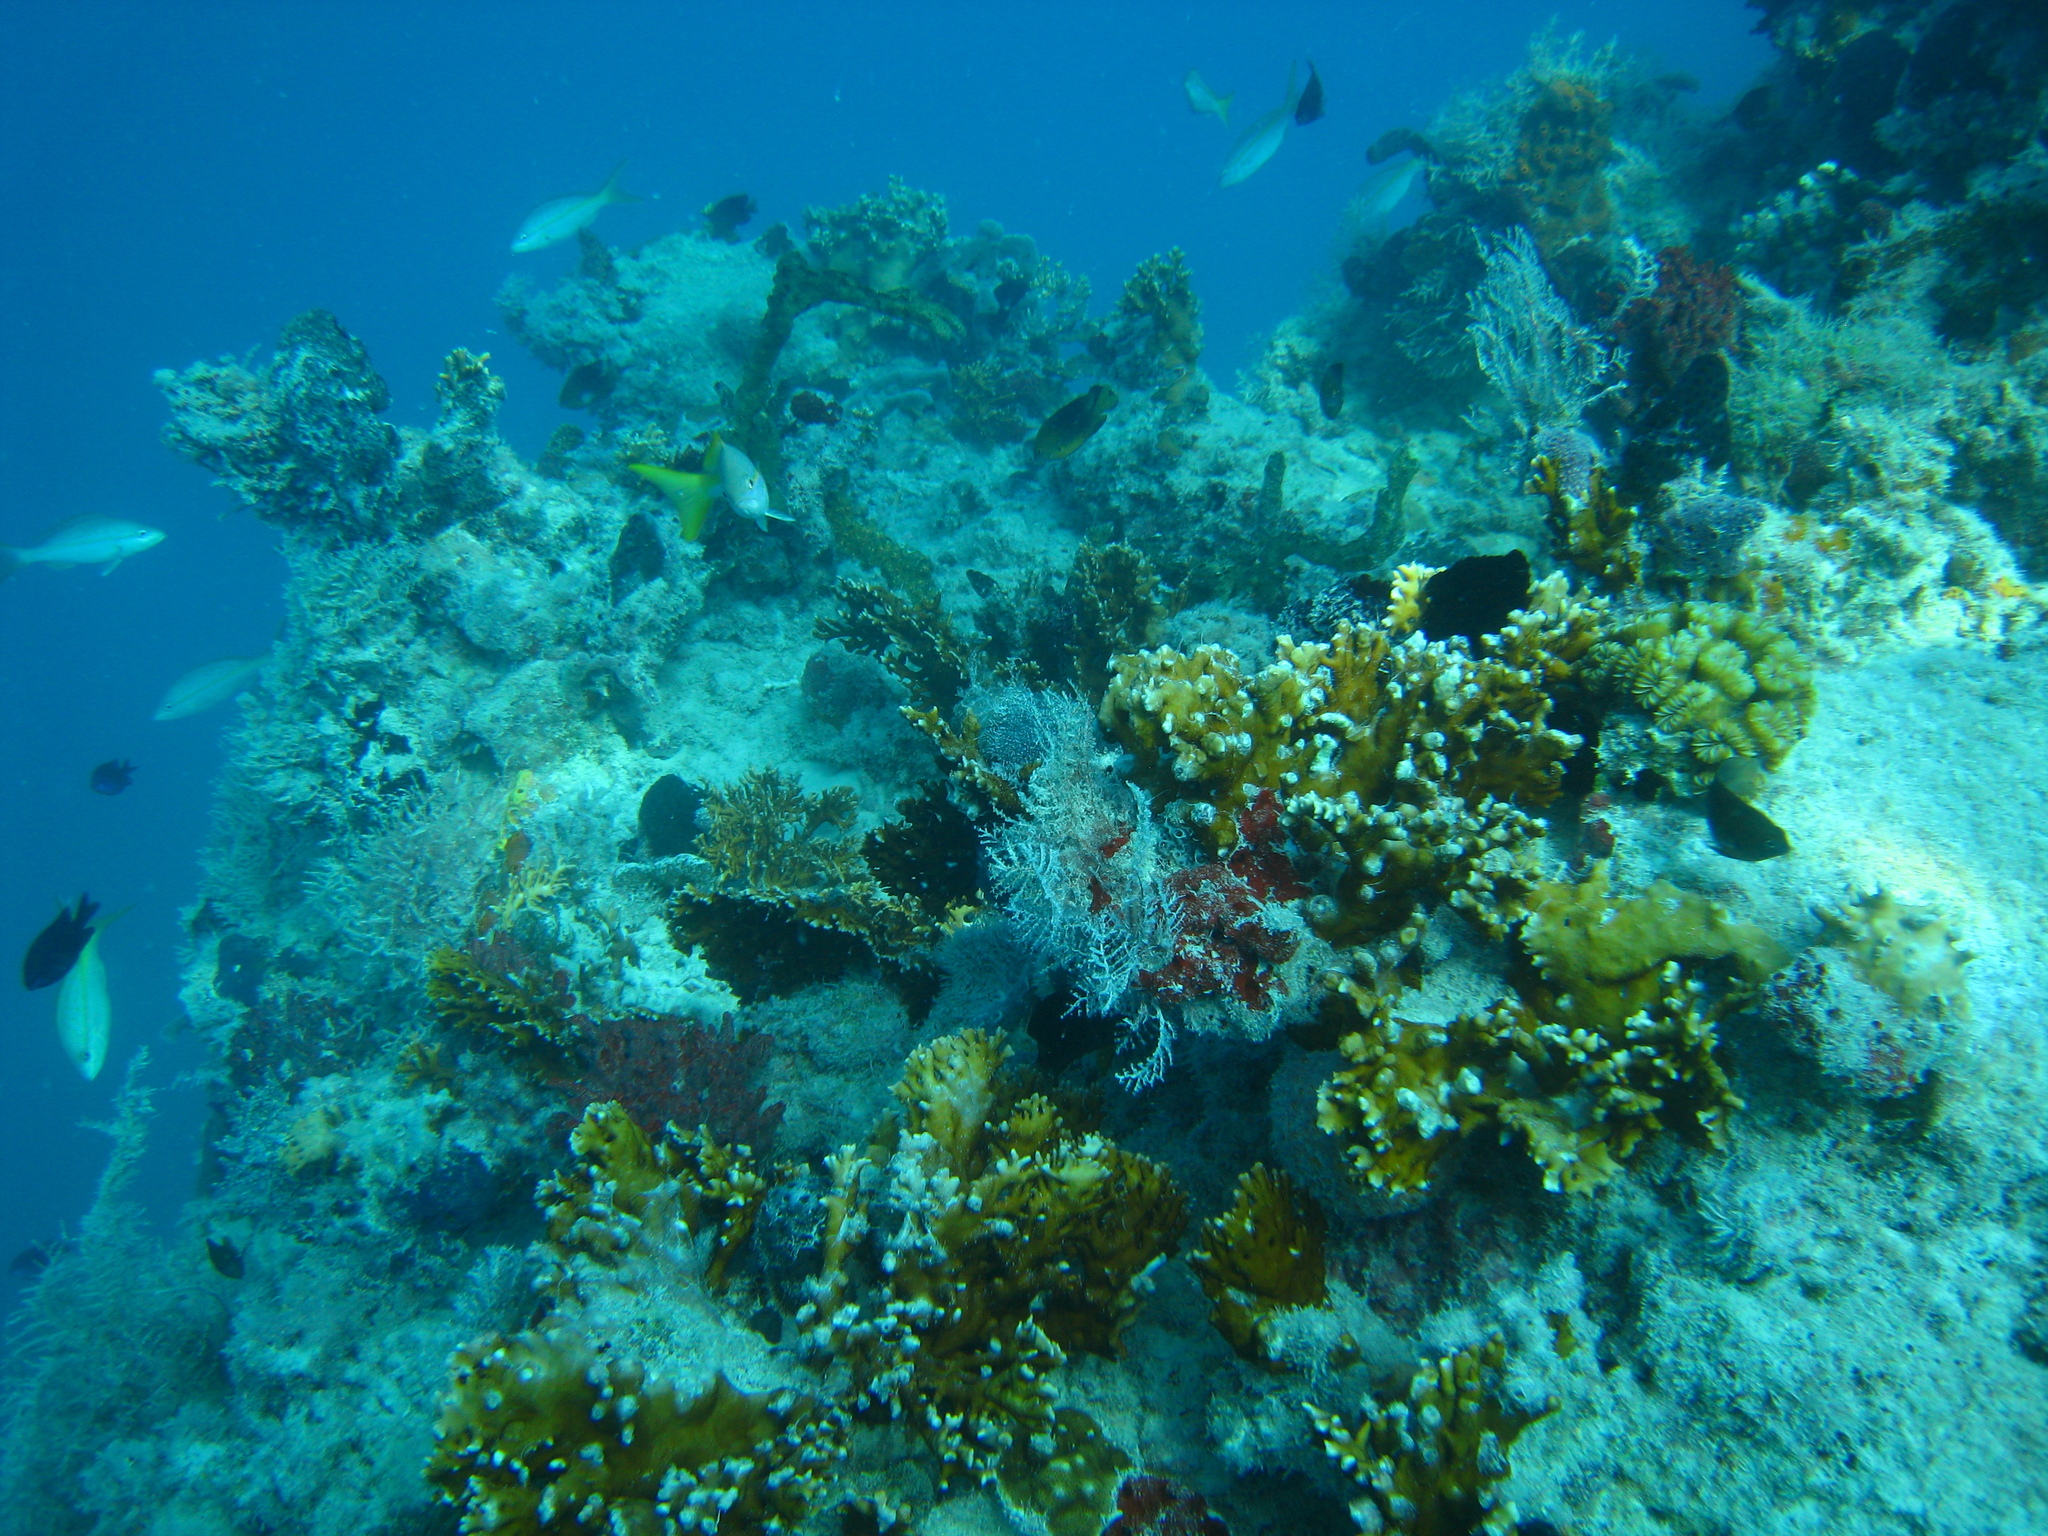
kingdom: Animalia
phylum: Cnidaria
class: Hydrozoa
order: Anthoathecata
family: Milleporidae
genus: Millepora
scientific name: Millepora alcicornis
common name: Branching fire coral
